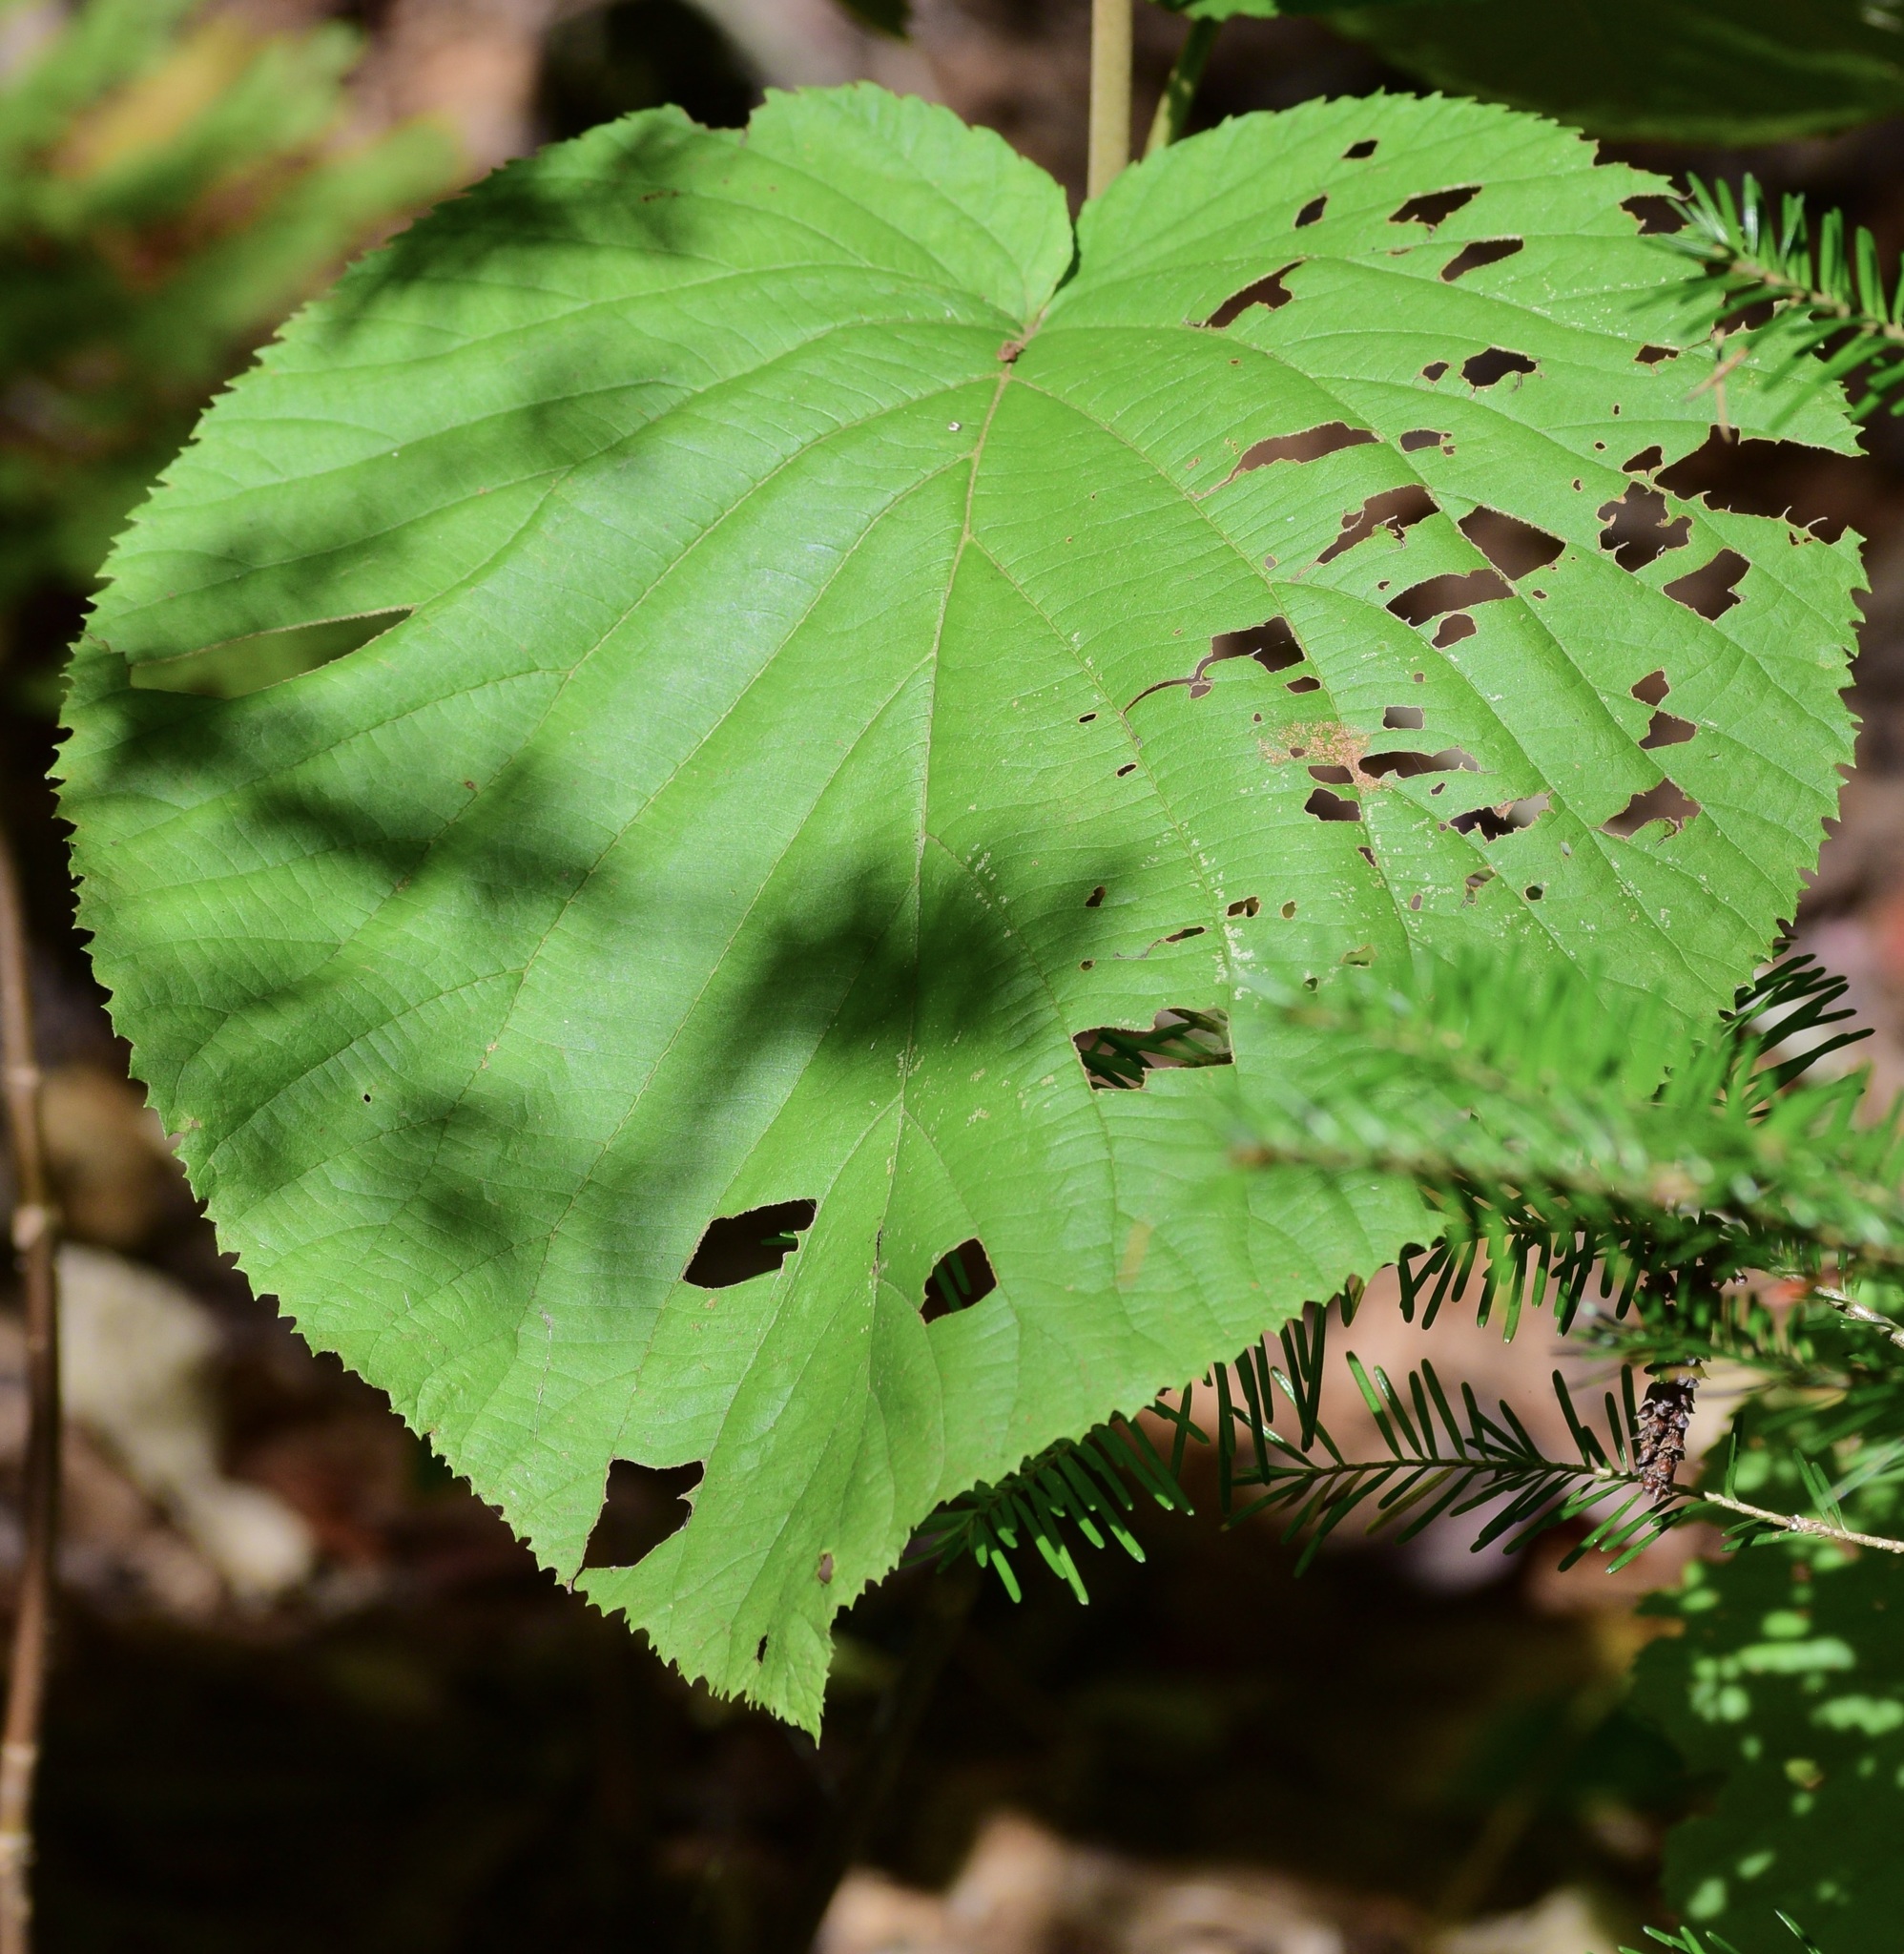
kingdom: Plantae
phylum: Tracheophyta
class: Magnoliopsida
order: Dipsacales
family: Viburnaceae
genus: Viburnum
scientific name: Viburnum lantanoides
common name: Hobblebush
